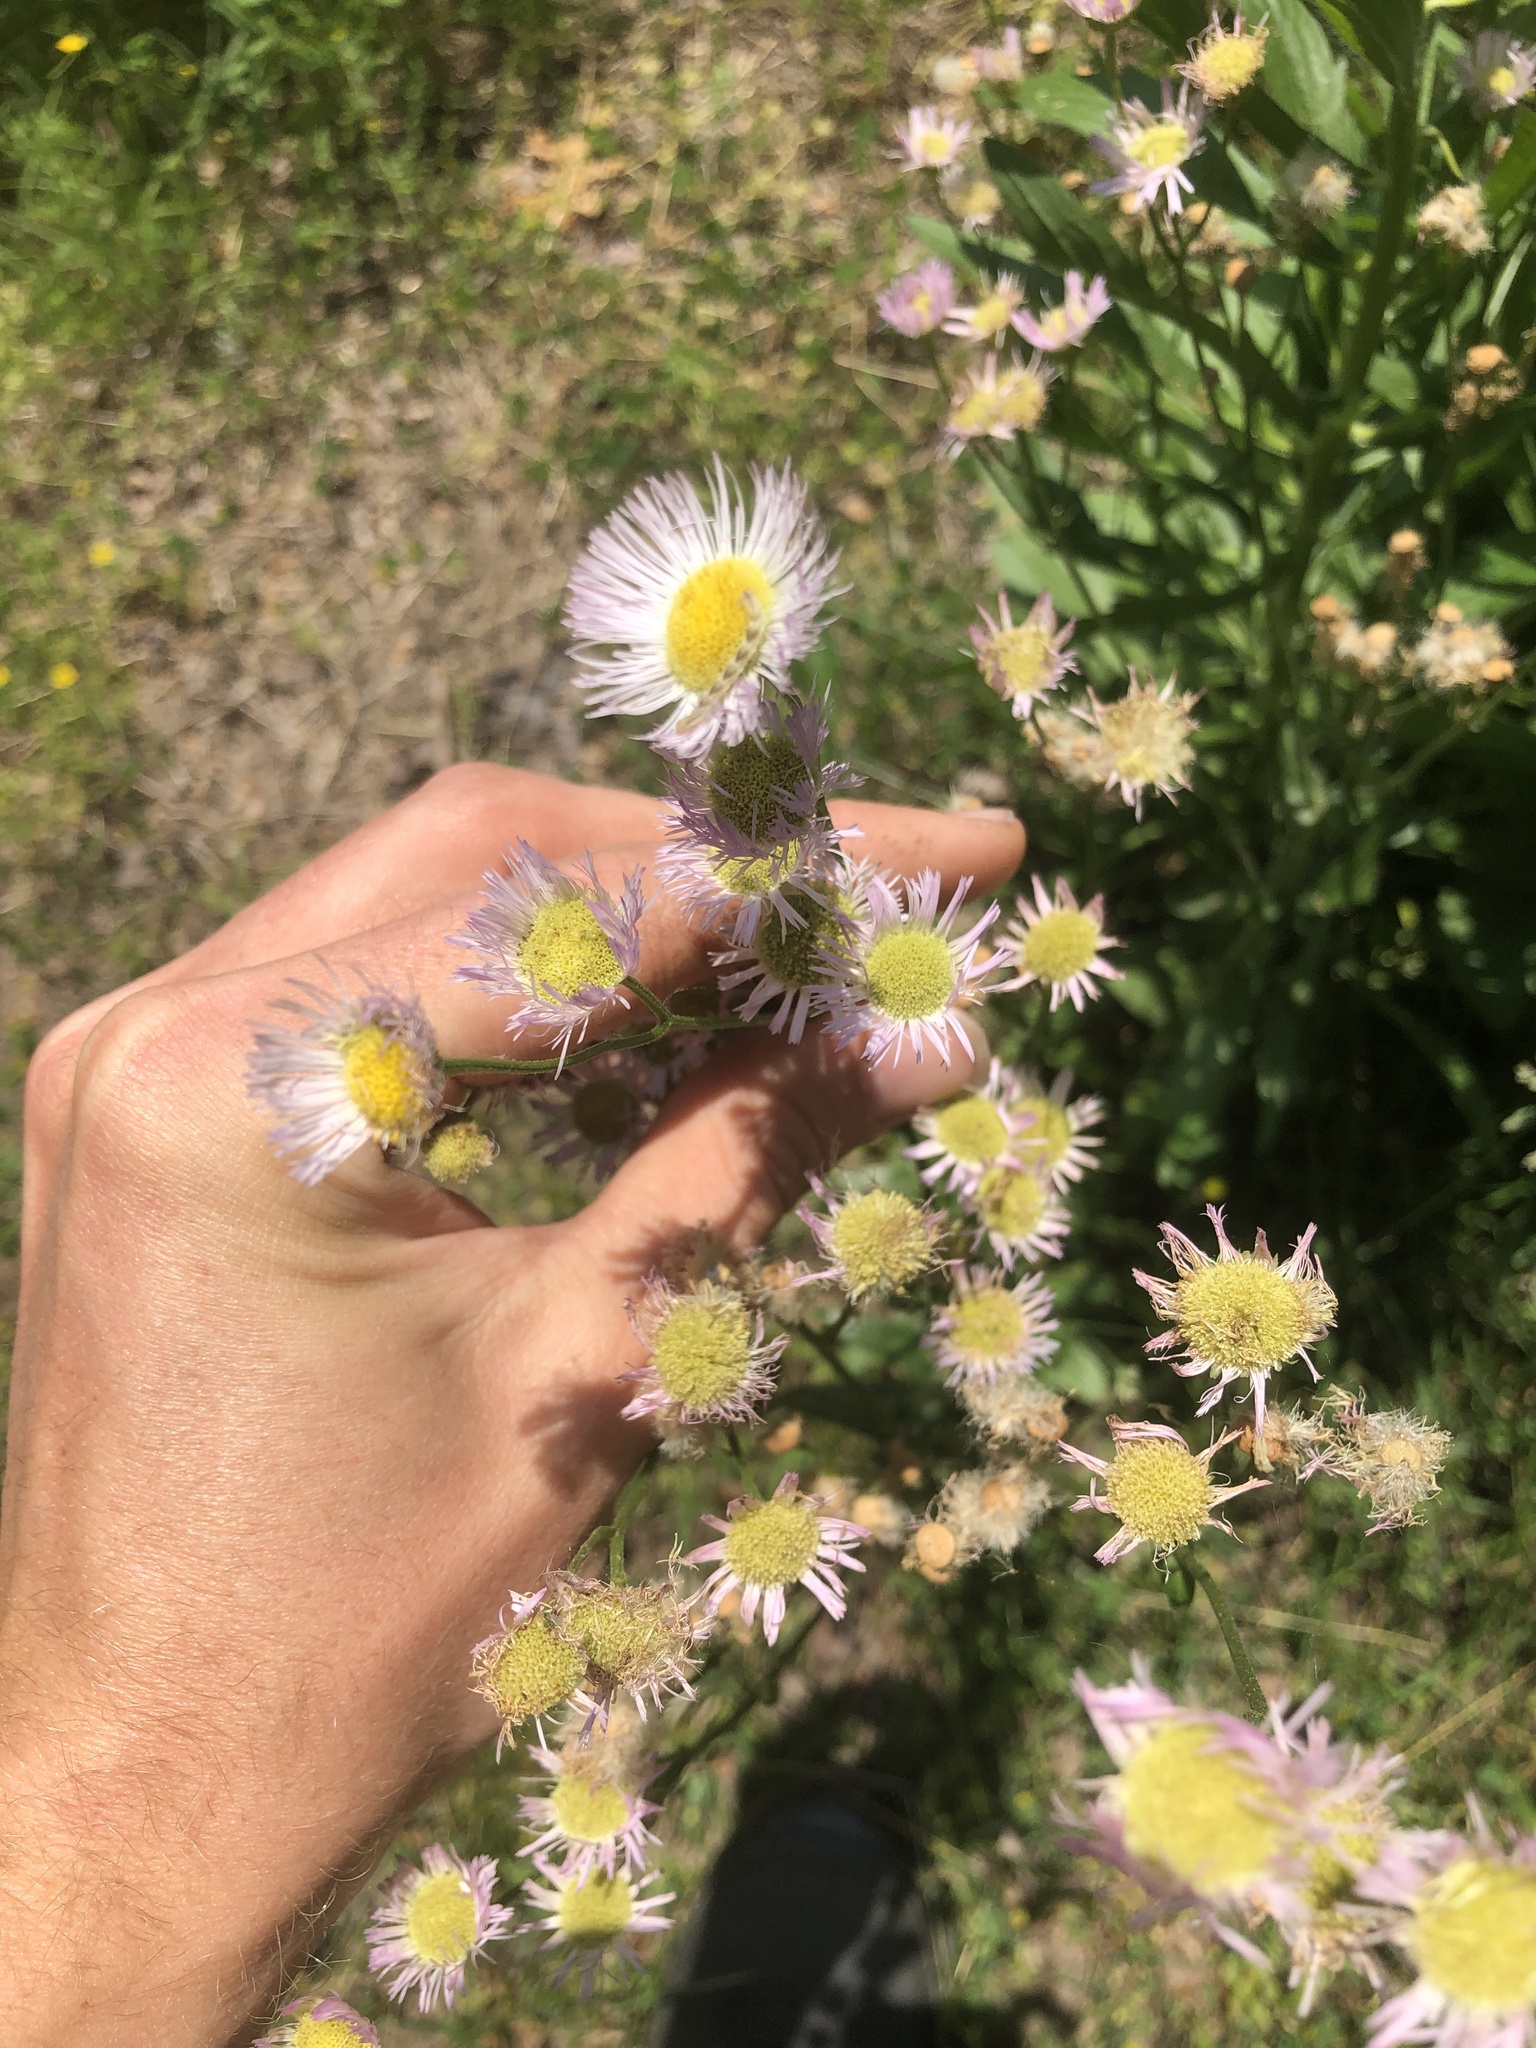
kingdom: Plantae
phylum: Tracheophyta
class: Magnoliopsida
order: Asterales
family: Asteraceae
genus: Erigeron
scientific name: Erigeron philadelphicus
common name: Robin's-plantain
